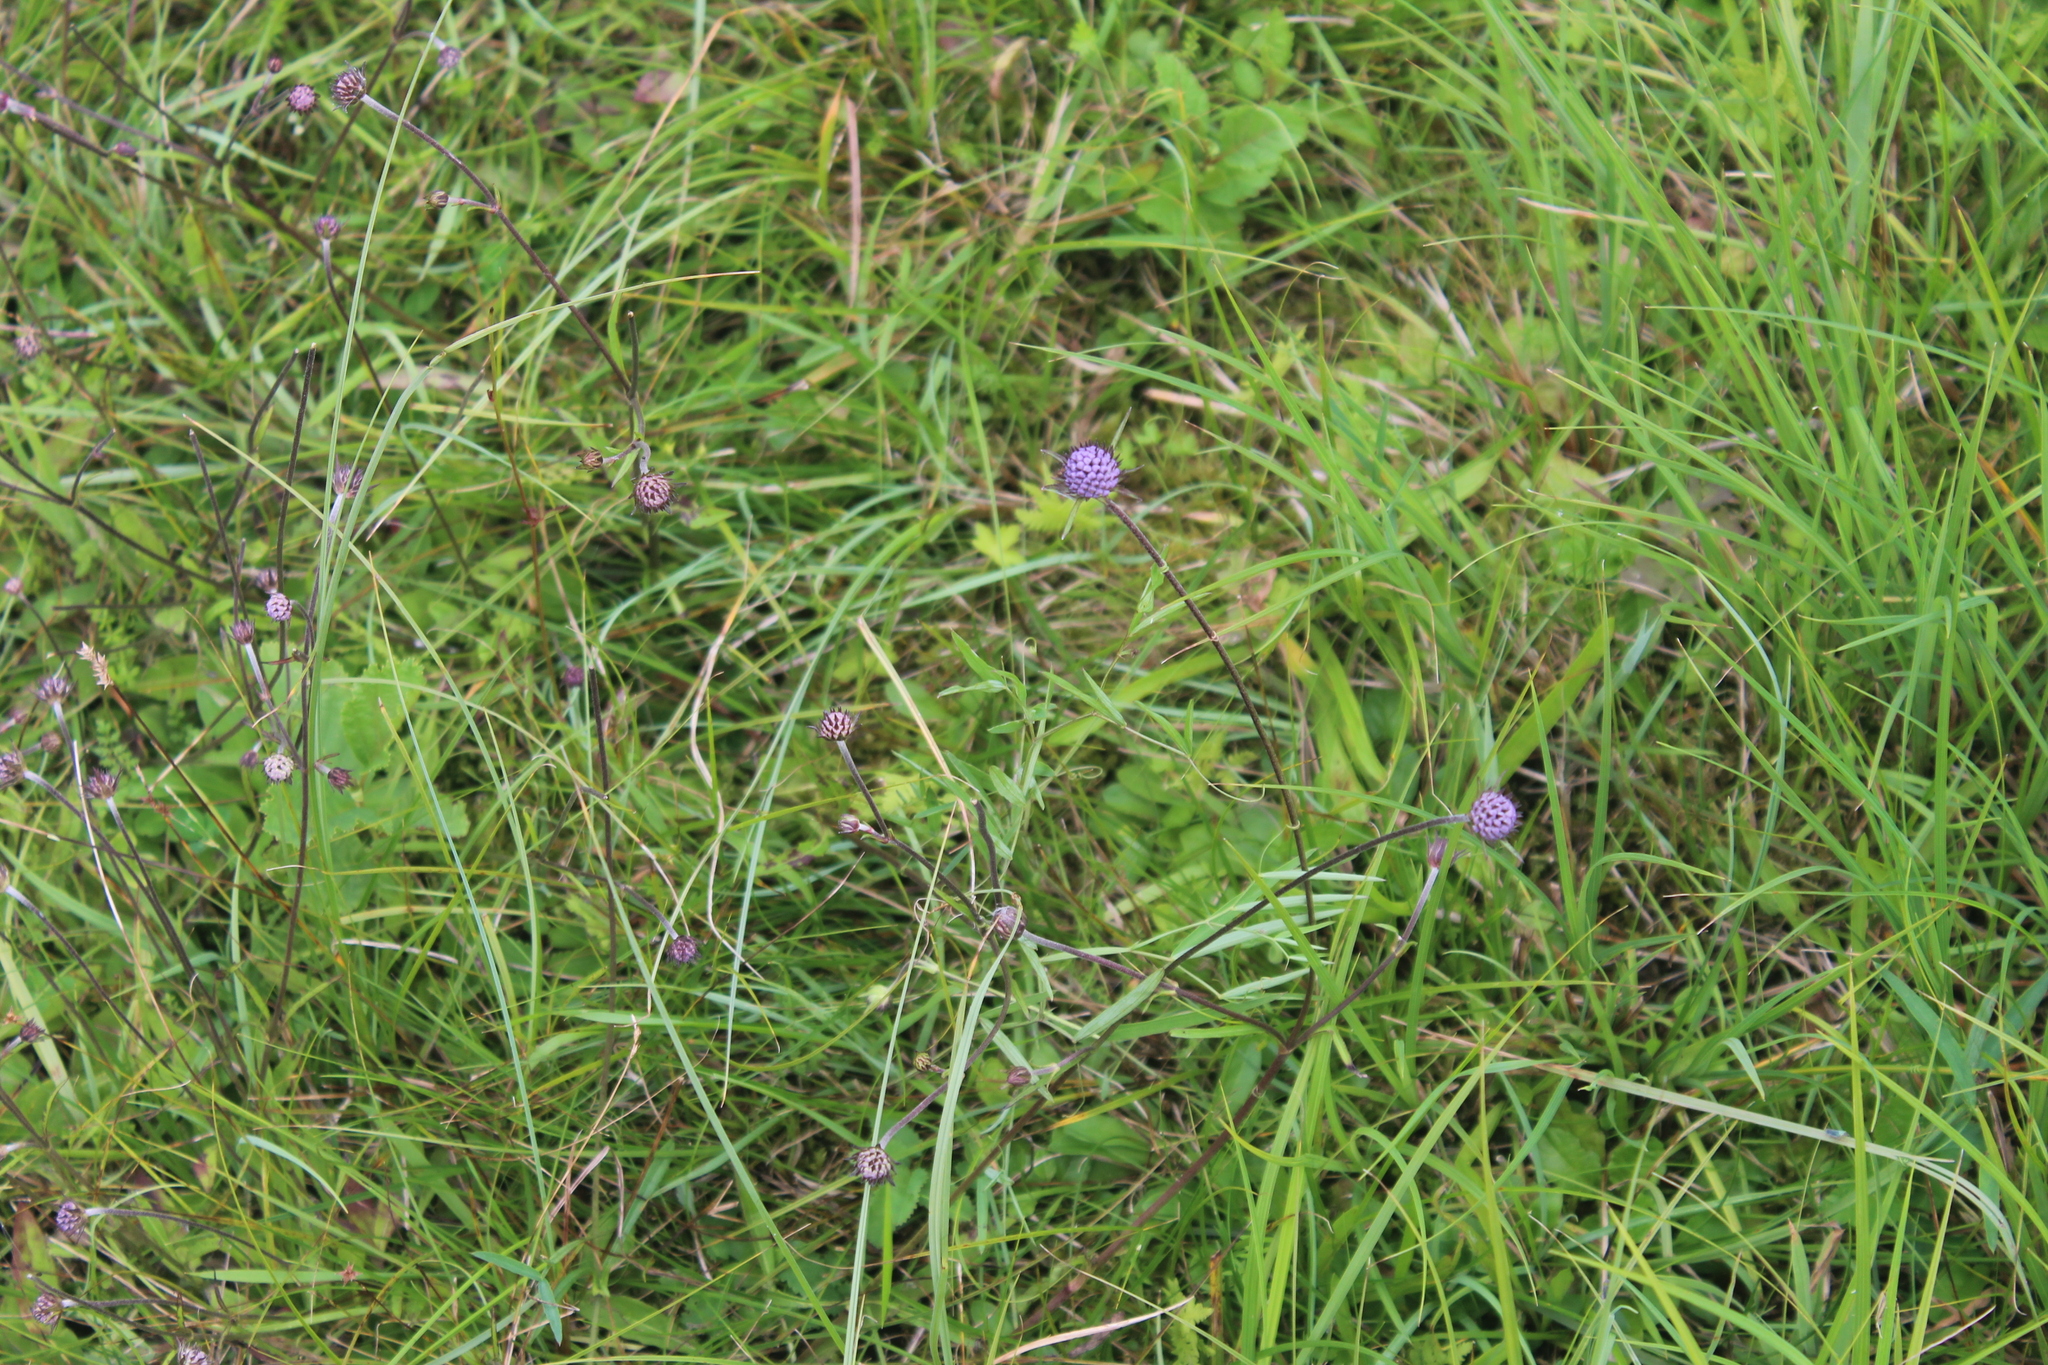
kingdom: Plantae
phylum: Tracheophyta
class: Magnoliopsida
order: Dipsacales
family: Caprifoliaceae
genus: Succisa
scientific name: Succisa pratensis
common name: Devil's-bit
